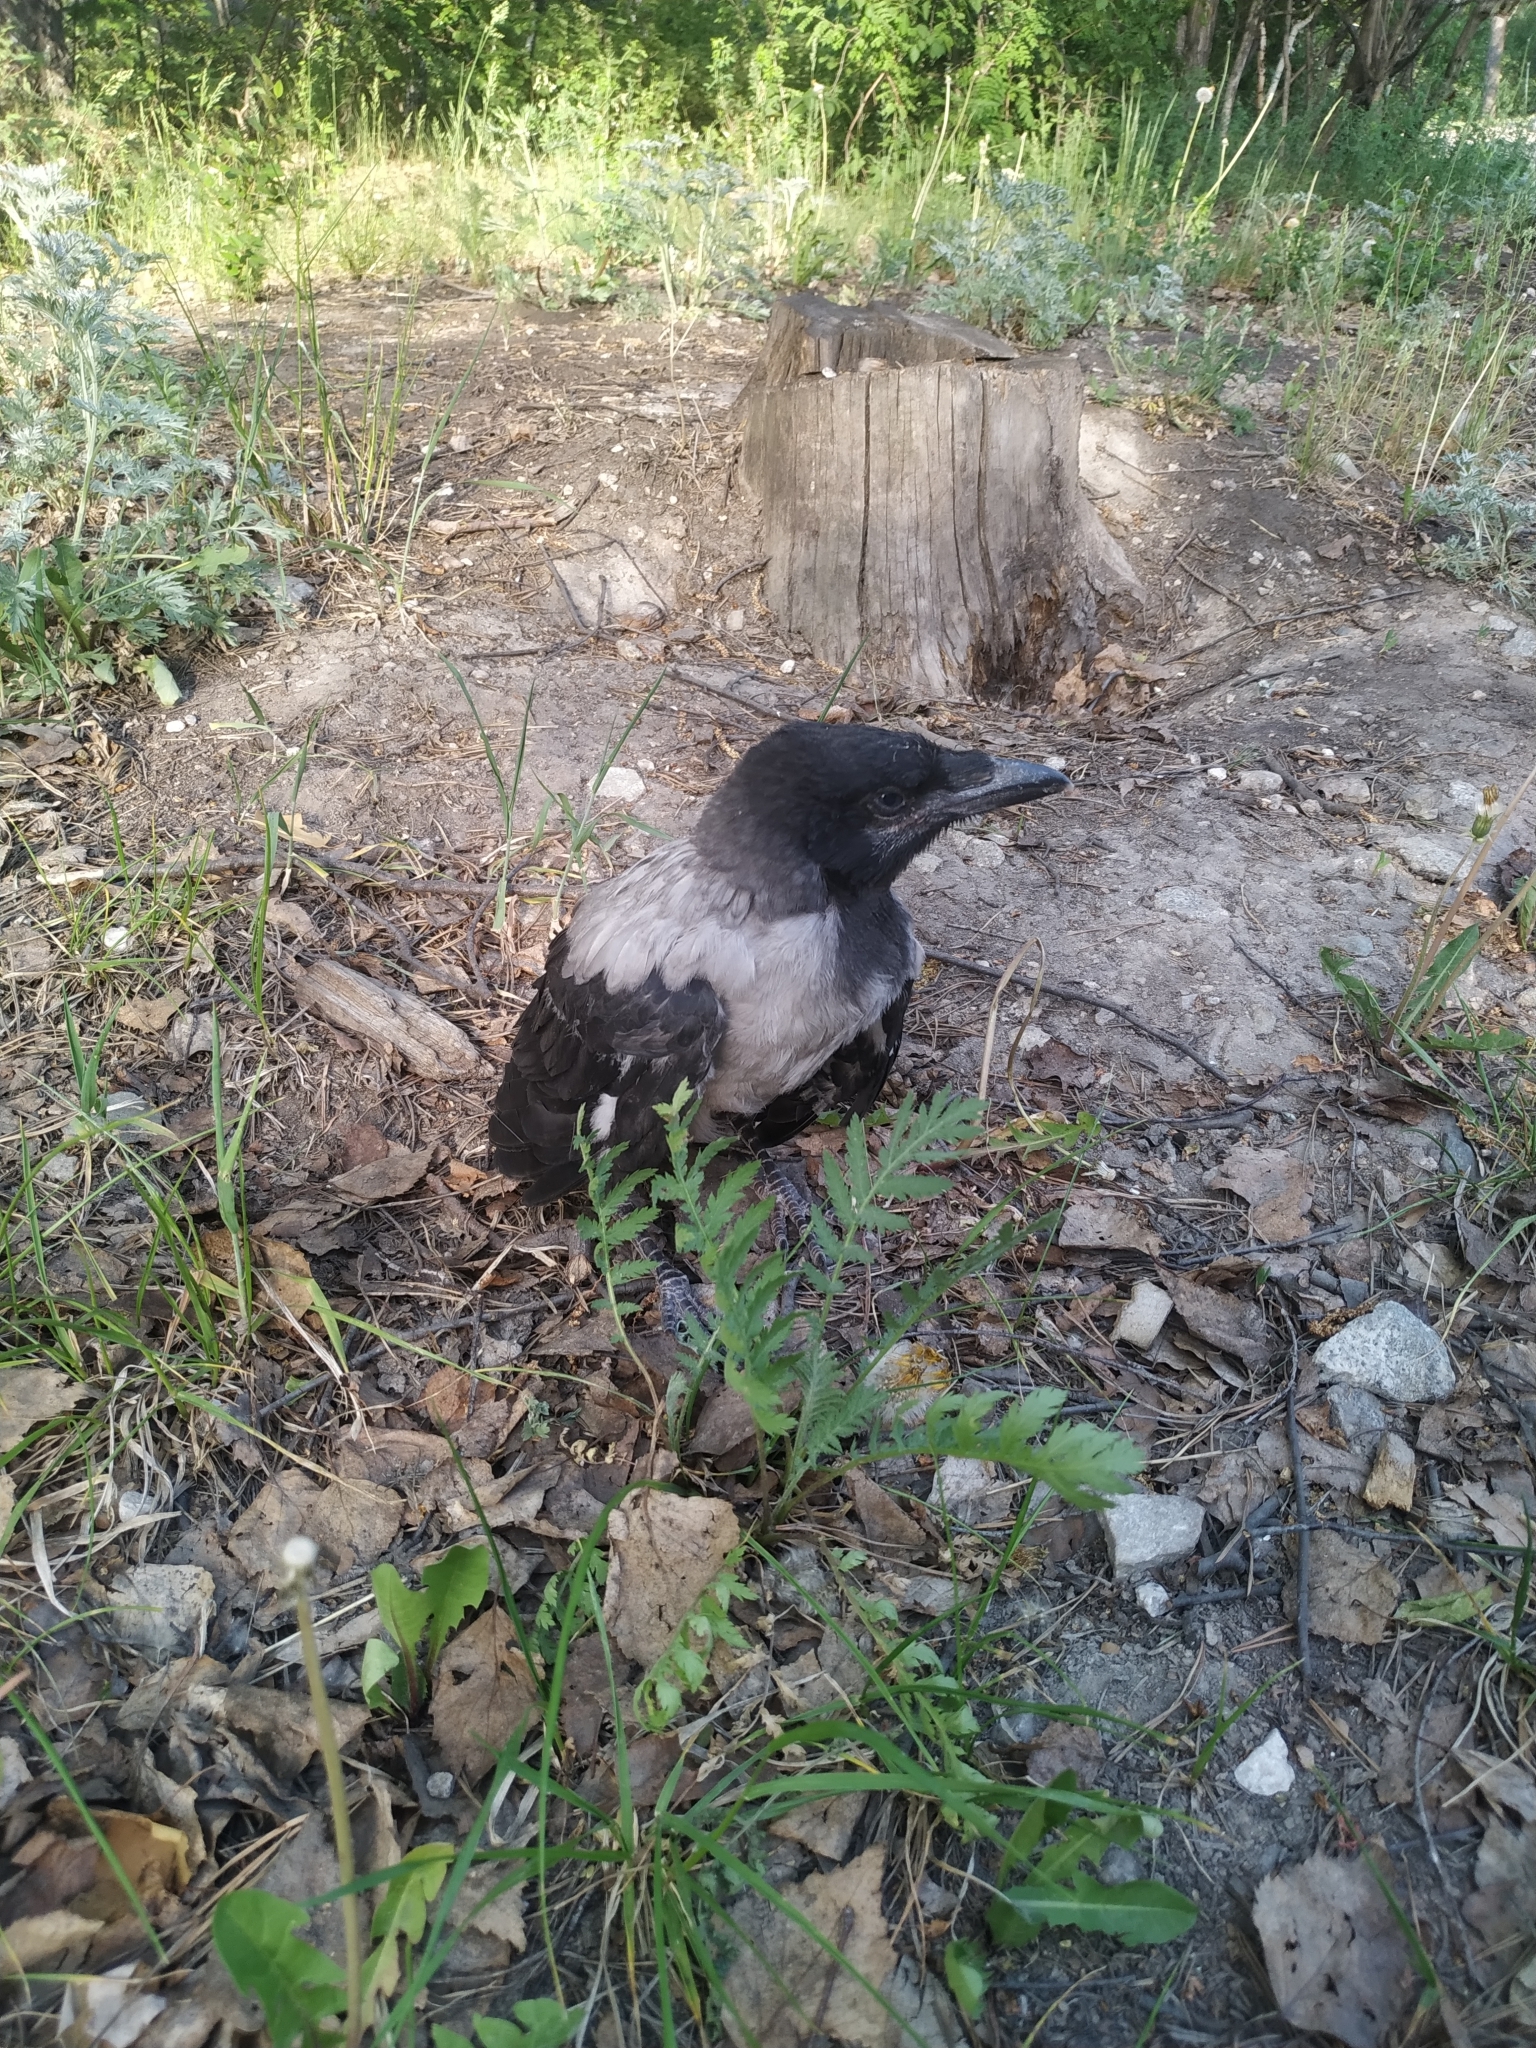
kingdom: Animalia
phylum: Chordata
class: Aves
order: Passeriformes
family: Corvidae
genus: Corvus
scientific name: Corvus cornix
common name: Hooded crow
